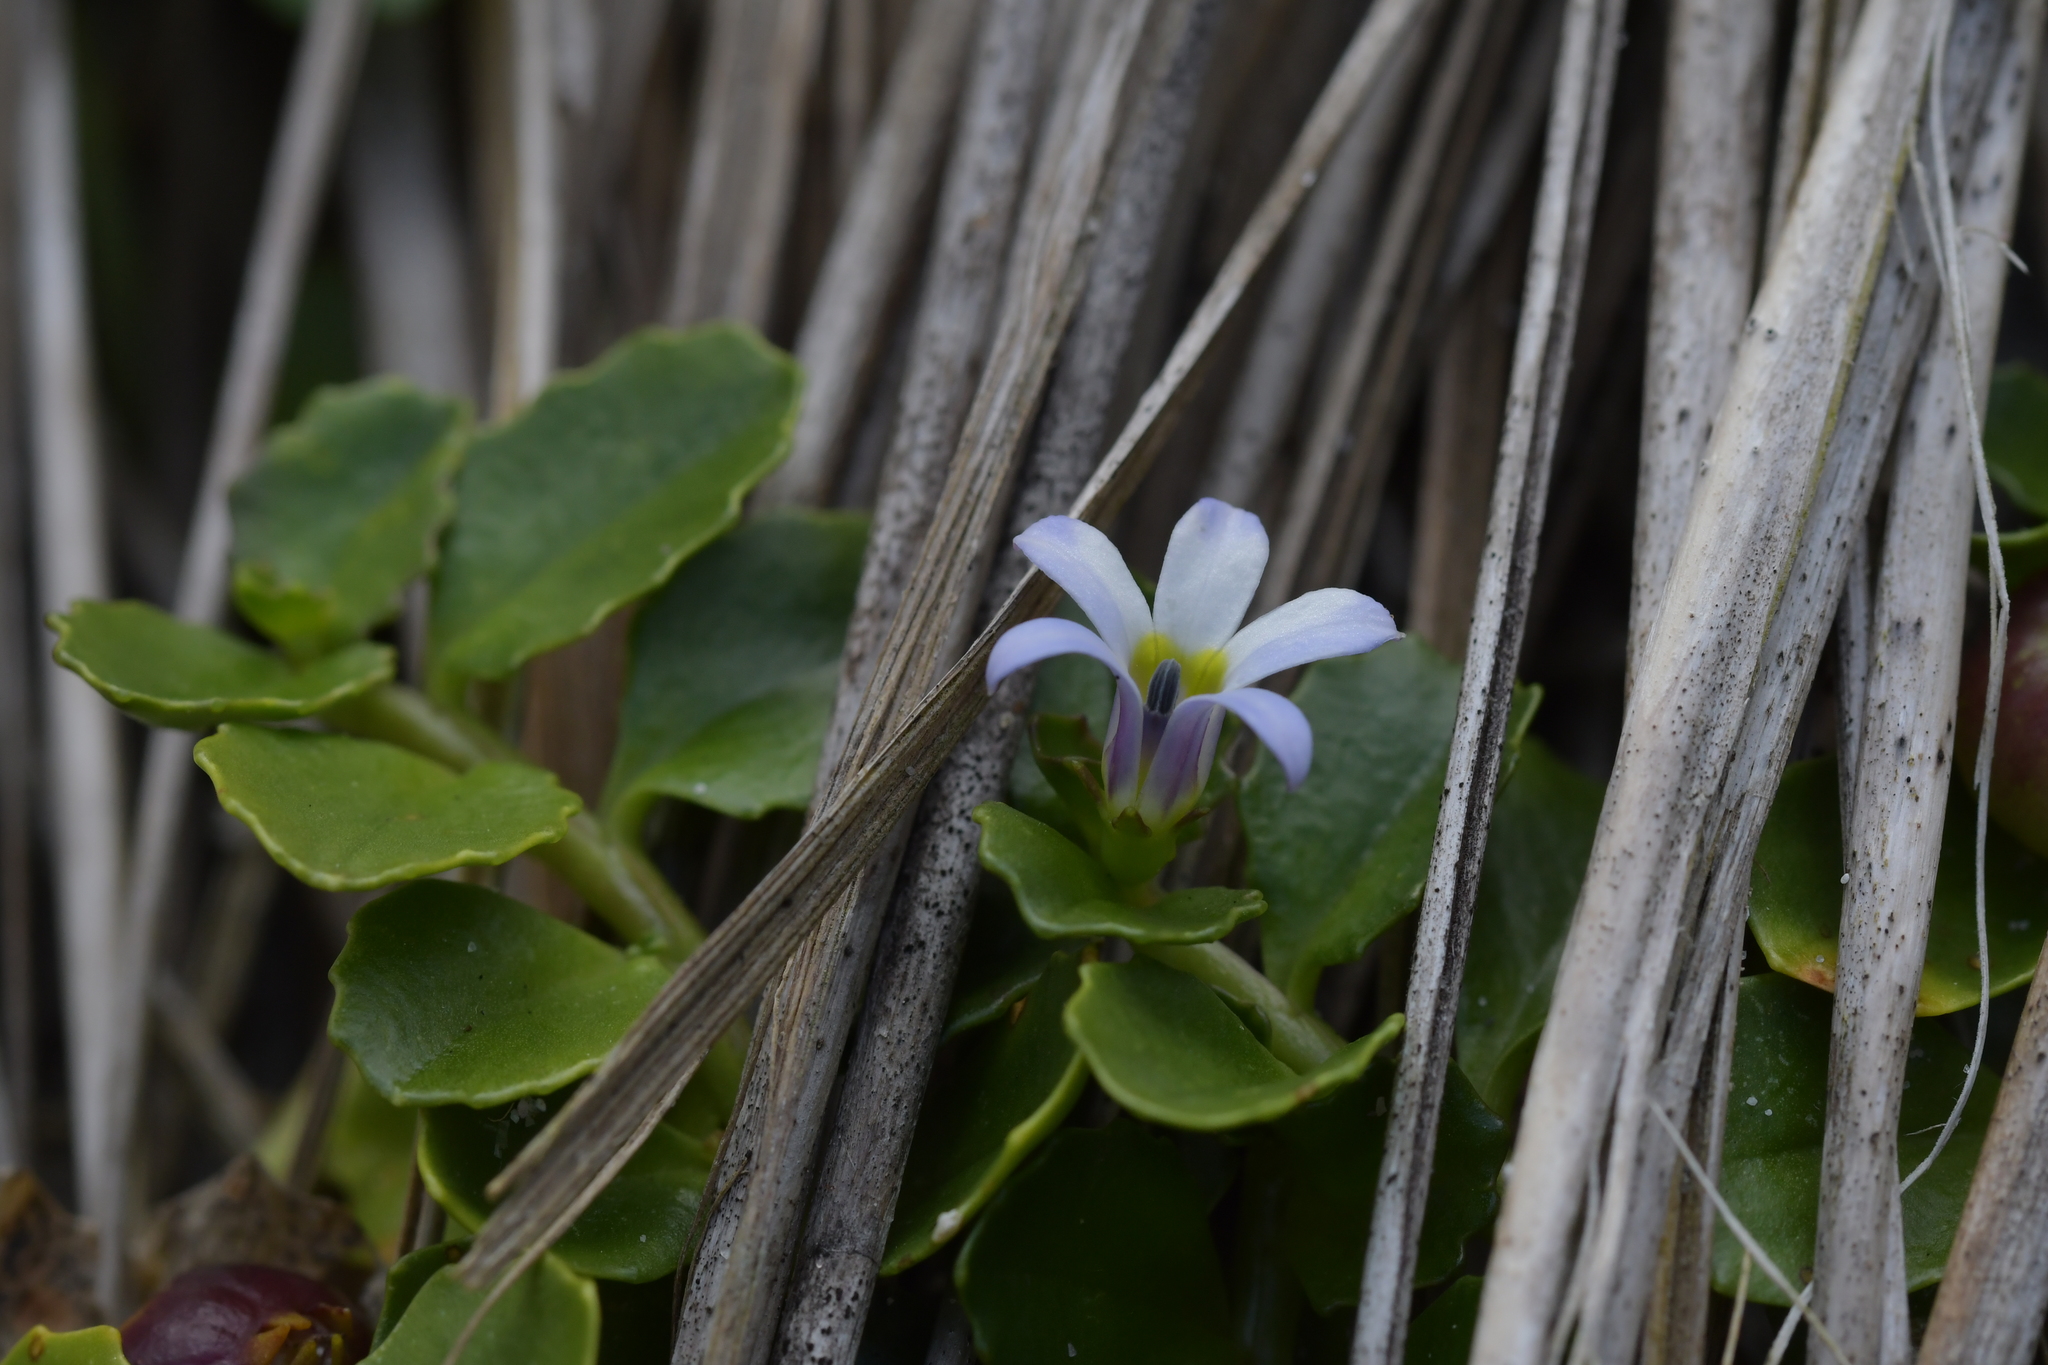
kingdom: Plantae
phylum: Tracheophyta
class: Magnoliopsida
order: Asterales
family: Campanulaceae
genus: Lobelia
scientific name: Lobelia arenaria
